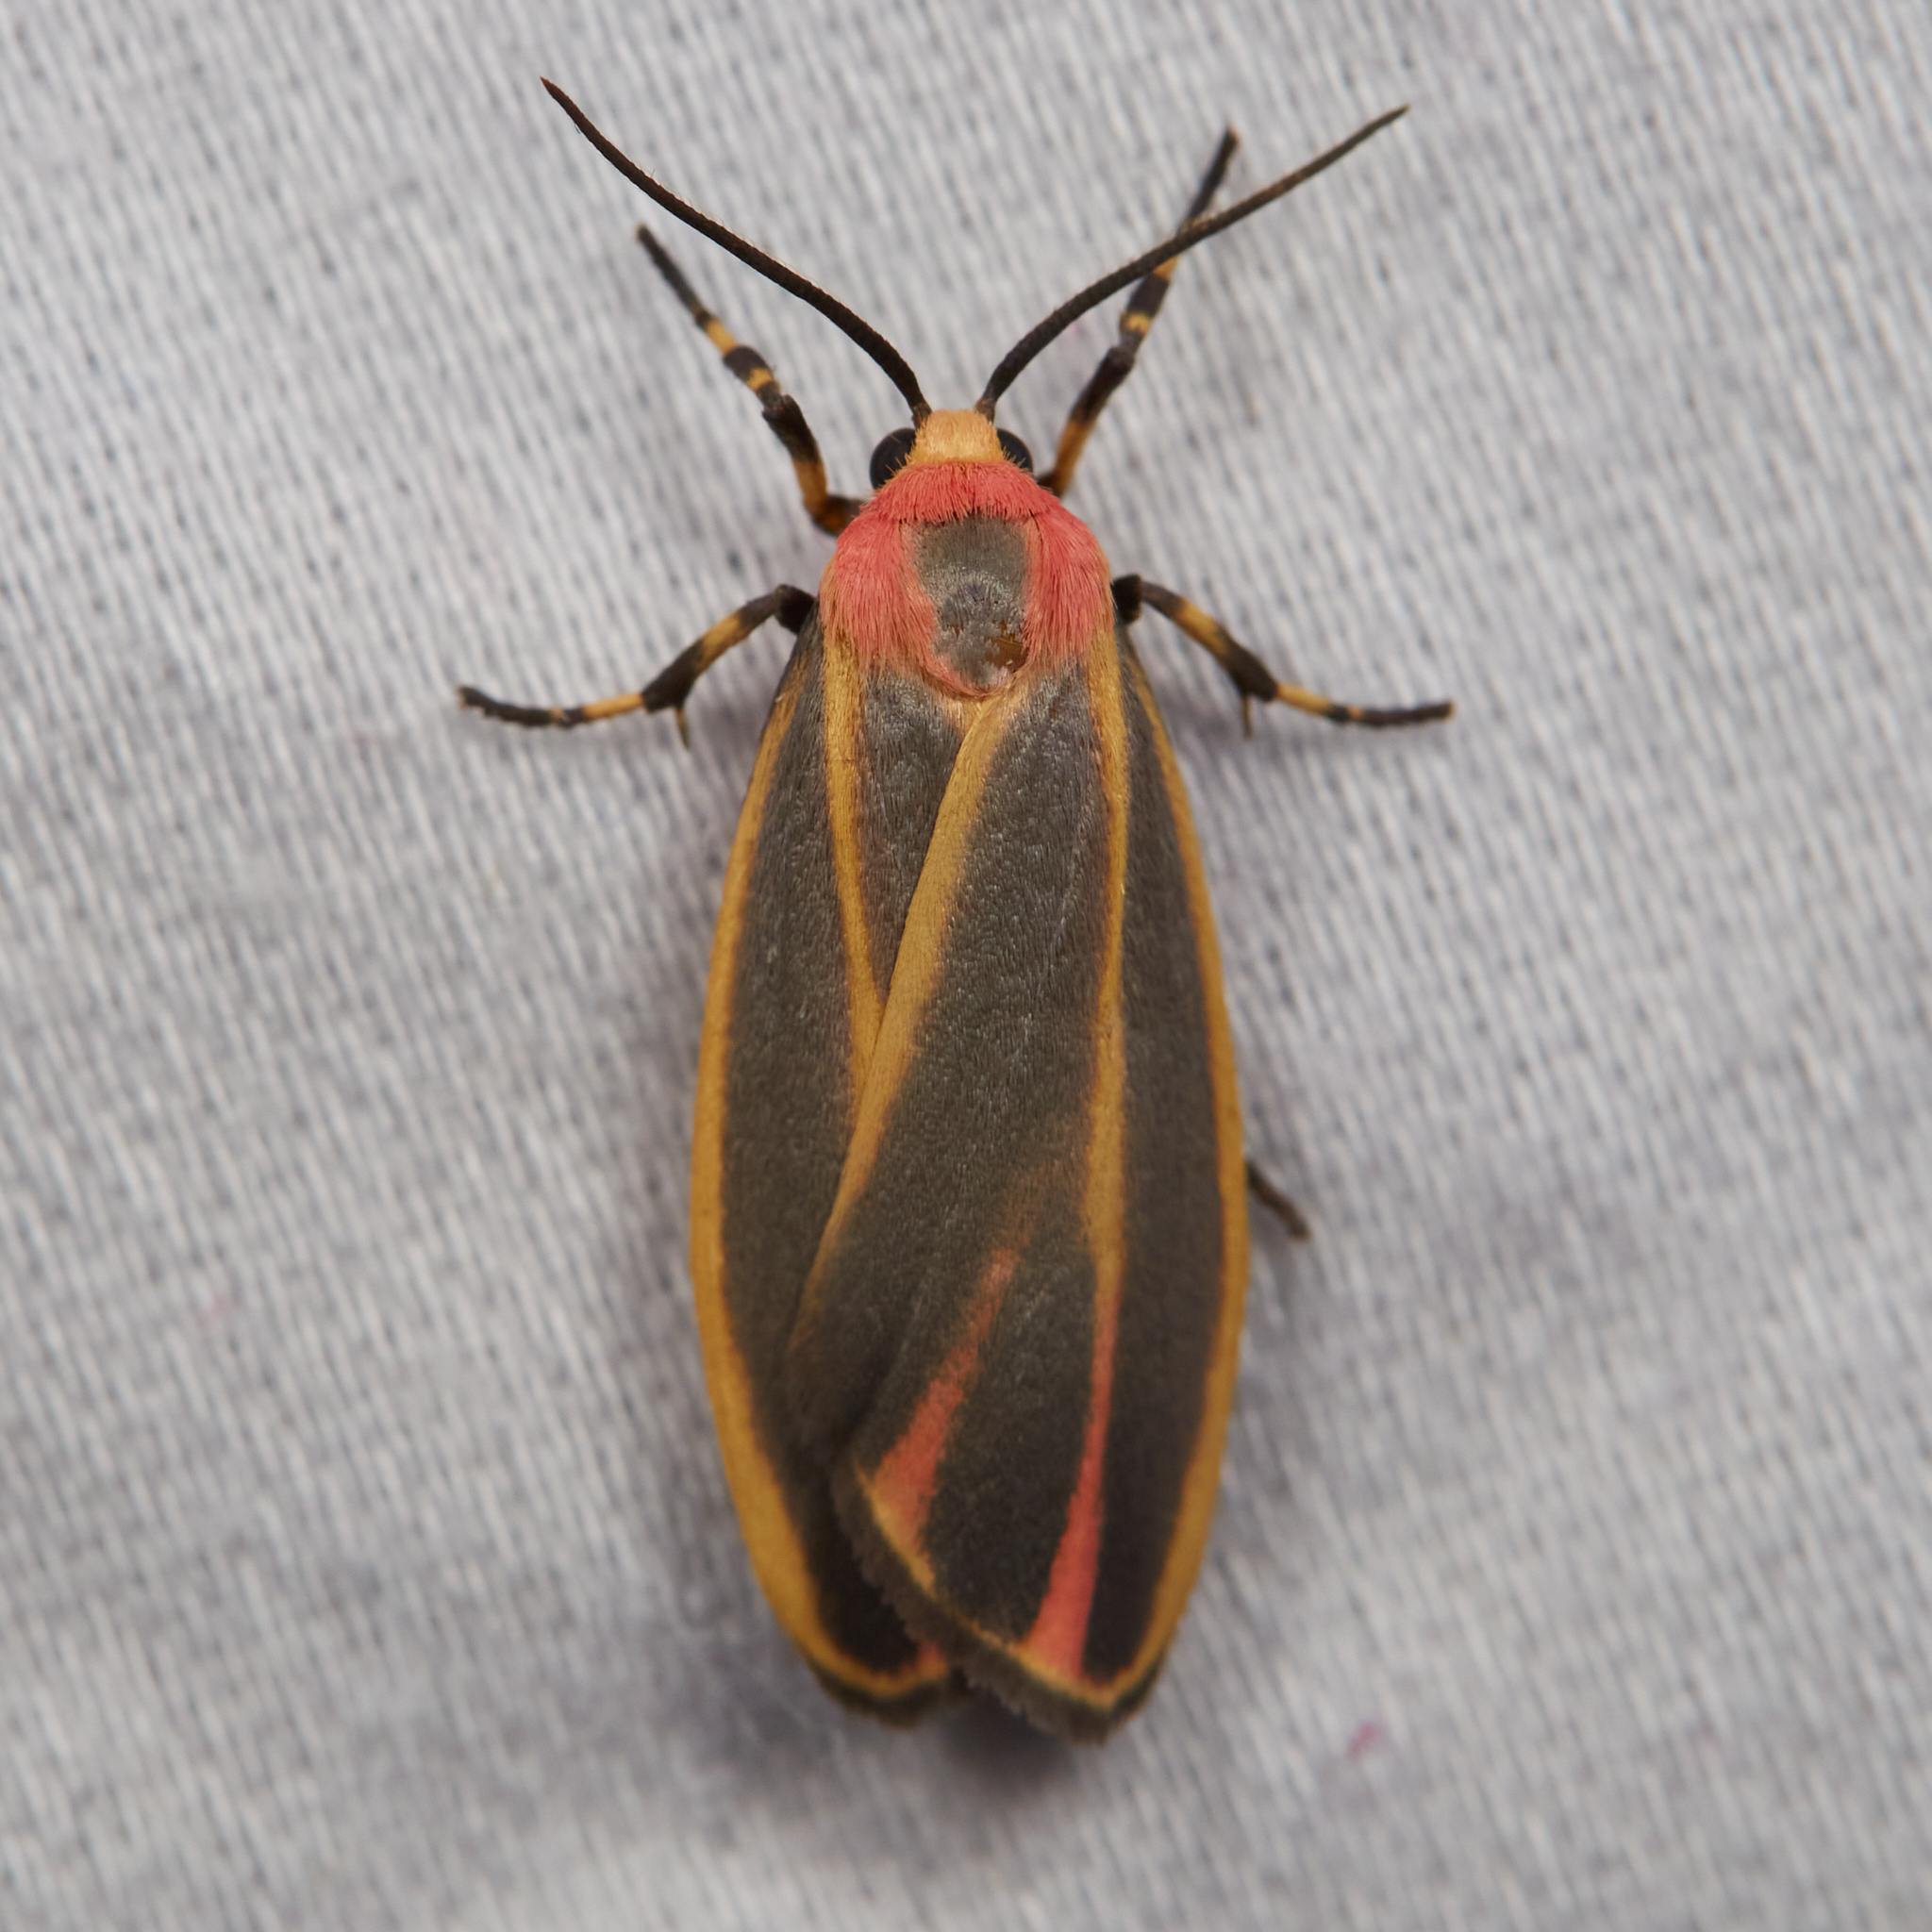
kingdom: Animalia
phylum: Arthropoda
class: Insecta
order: Lepidoptera
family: Erebidae
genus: Hypoprepia
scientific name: Hypoprepia fucosa
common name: Painted lichen moth
